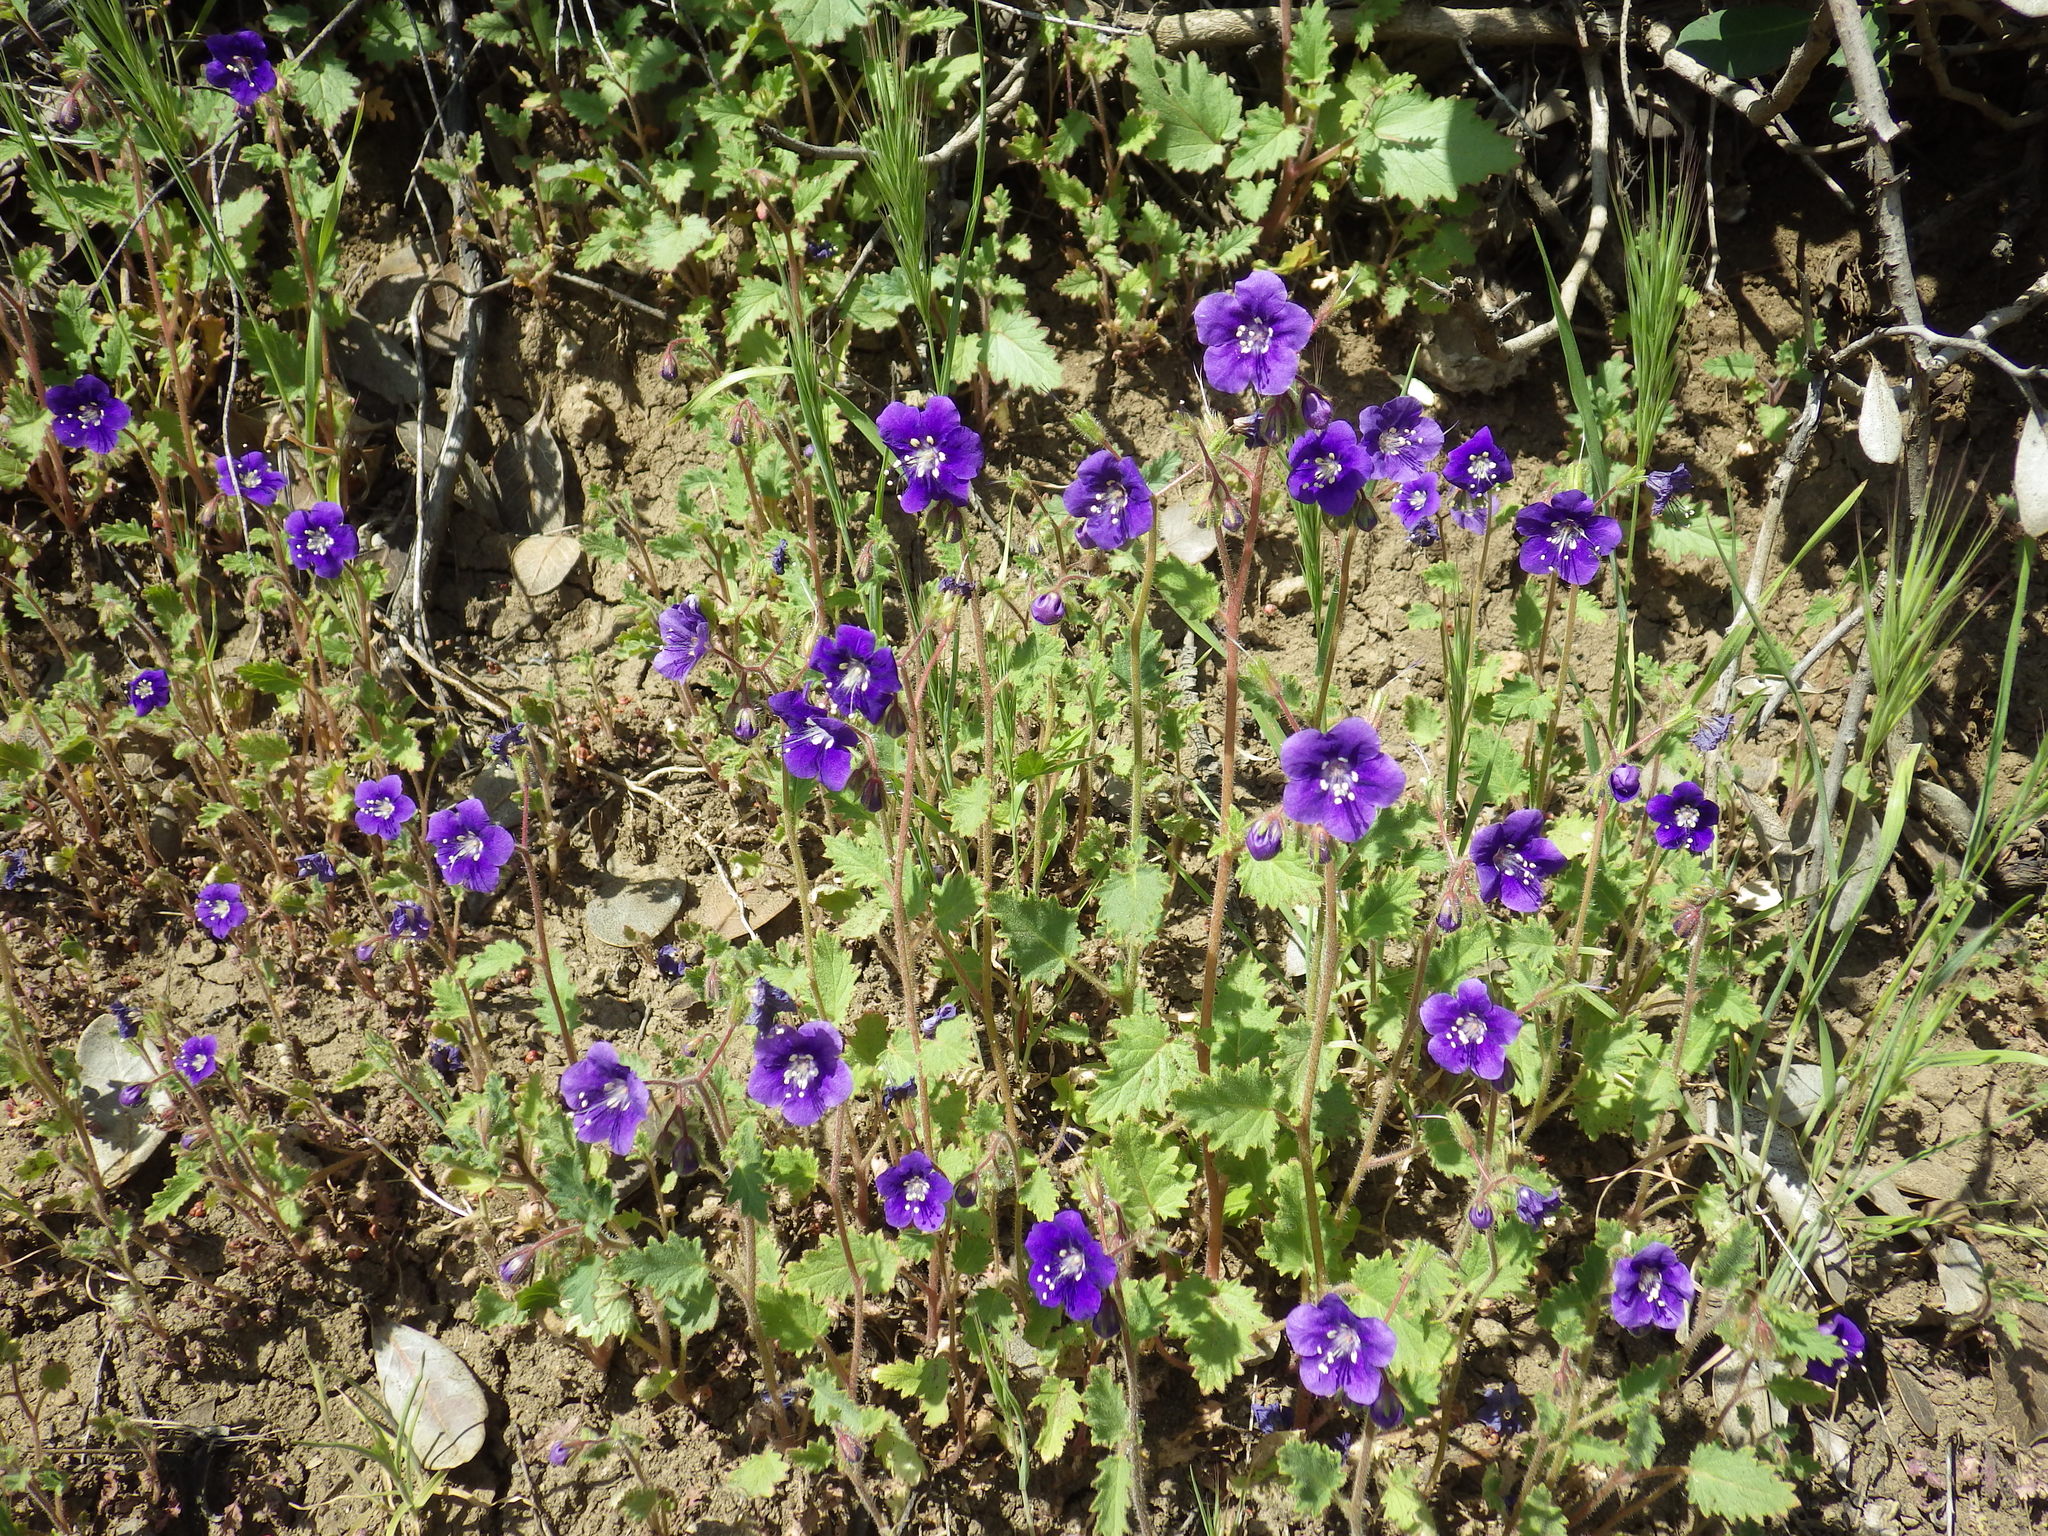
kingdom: Plantae
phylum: Tracheophyta
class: Magnoliopsida
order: Boraginales
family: Hydrophyllaceae
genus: Phacelia
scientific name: Phacelia parryi
